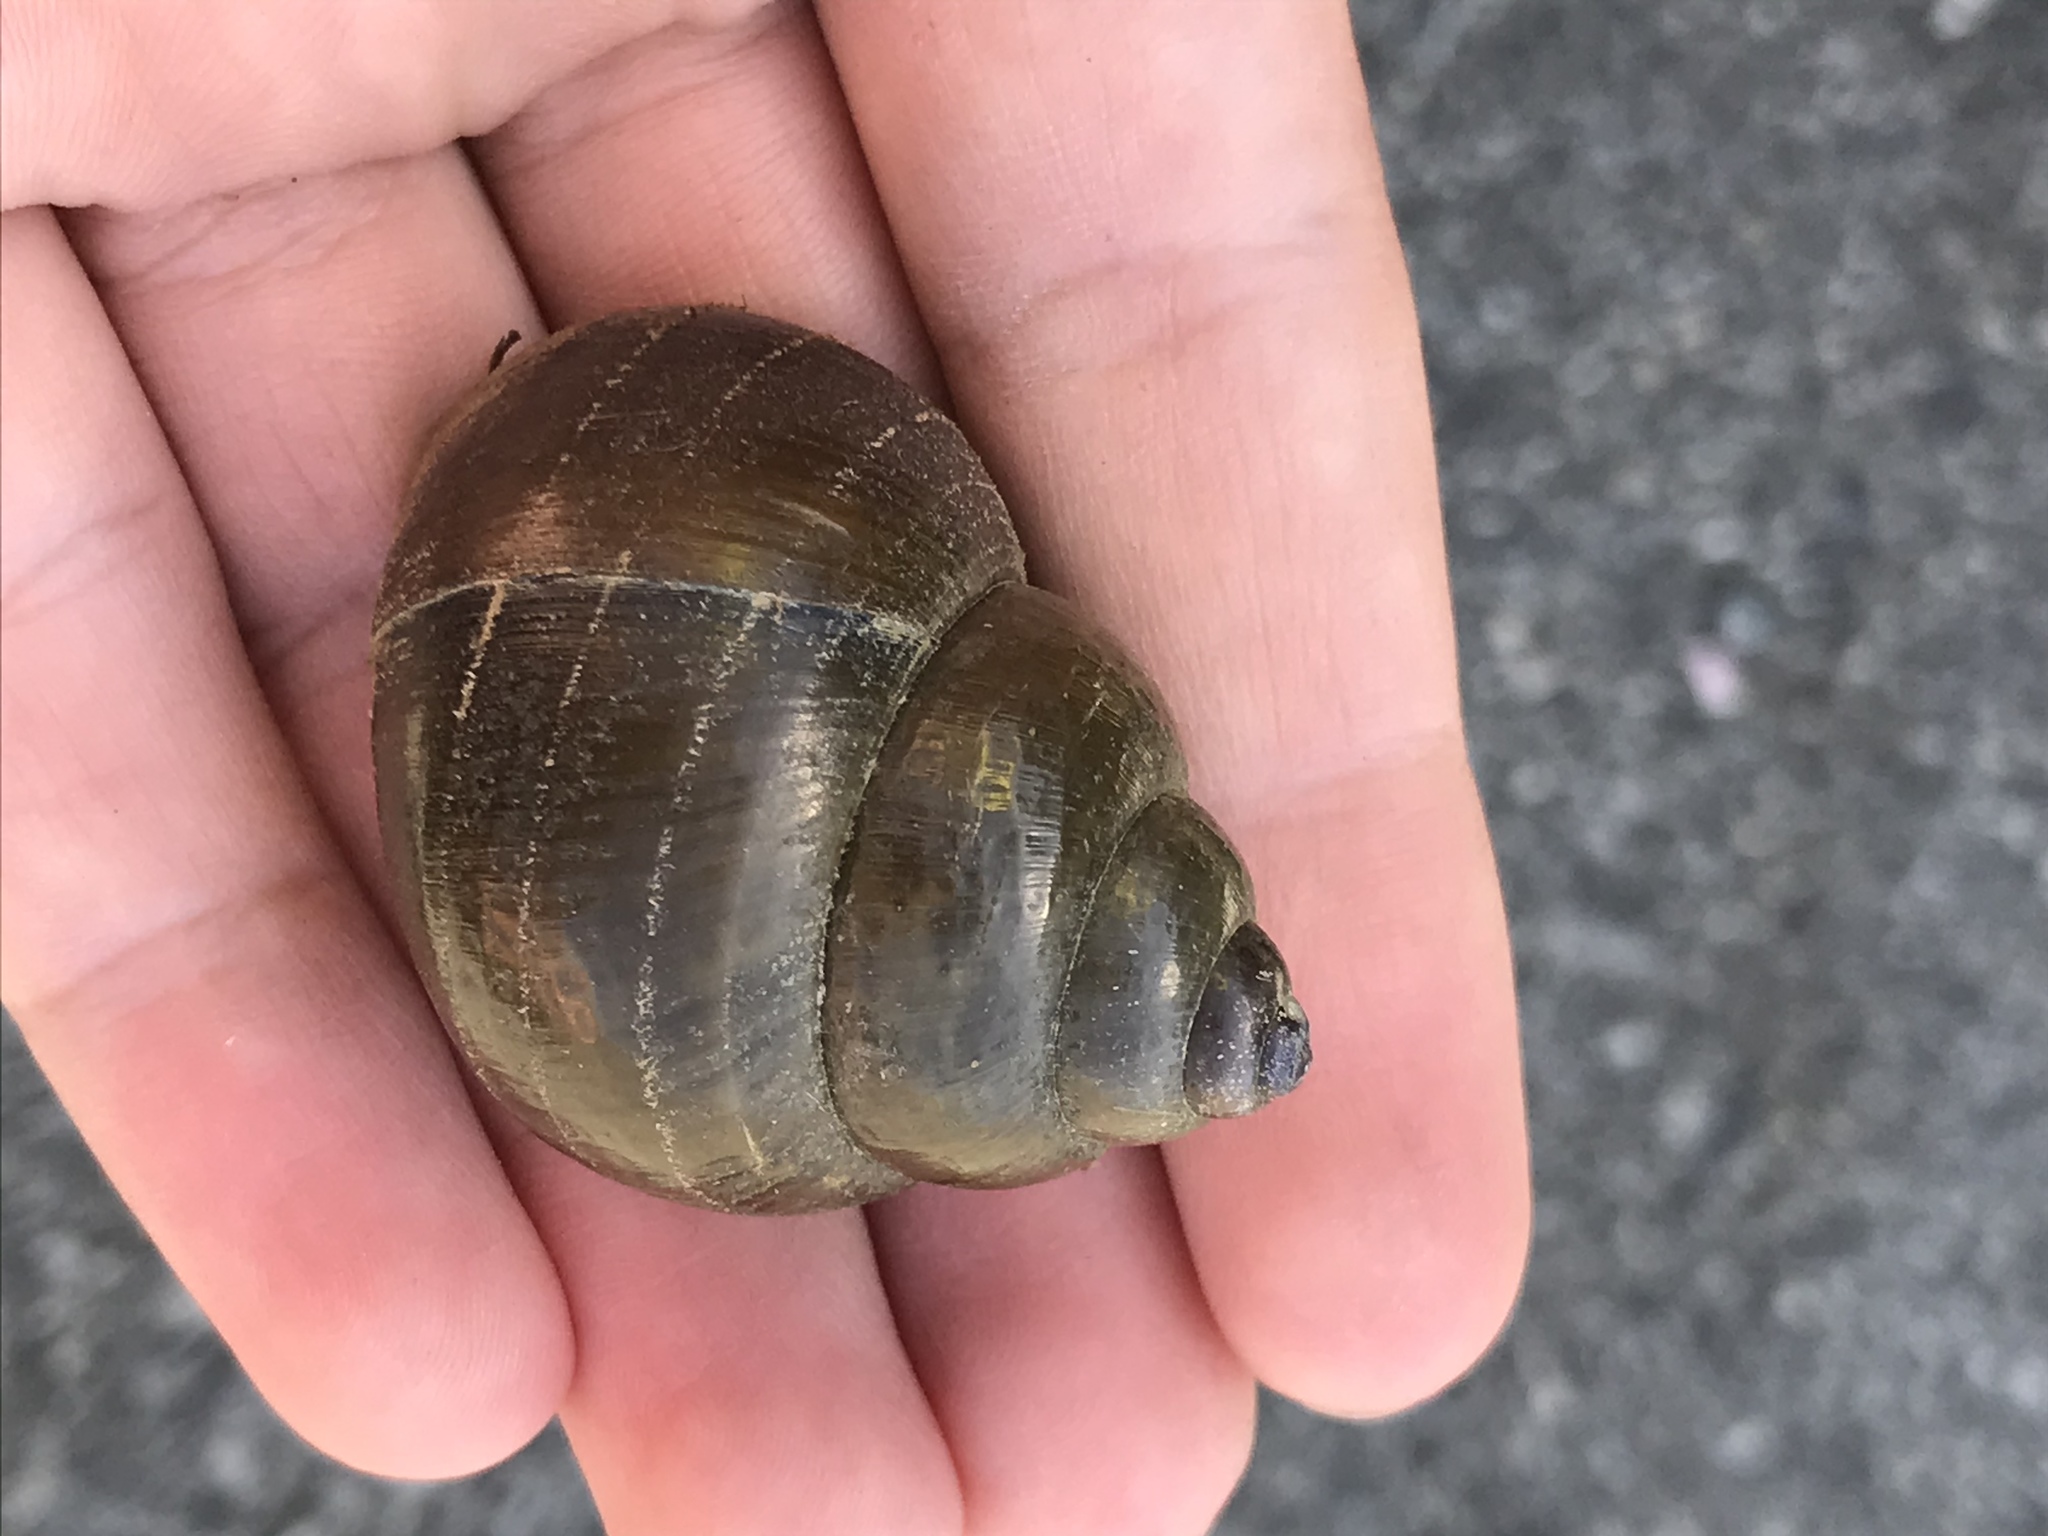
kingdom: Animalia
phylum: Mollusca
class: Gastropoda
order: Architaenioglossa
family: Viviparidae
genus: Cipangopaludina
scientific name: Cipangopaludina chinensis
